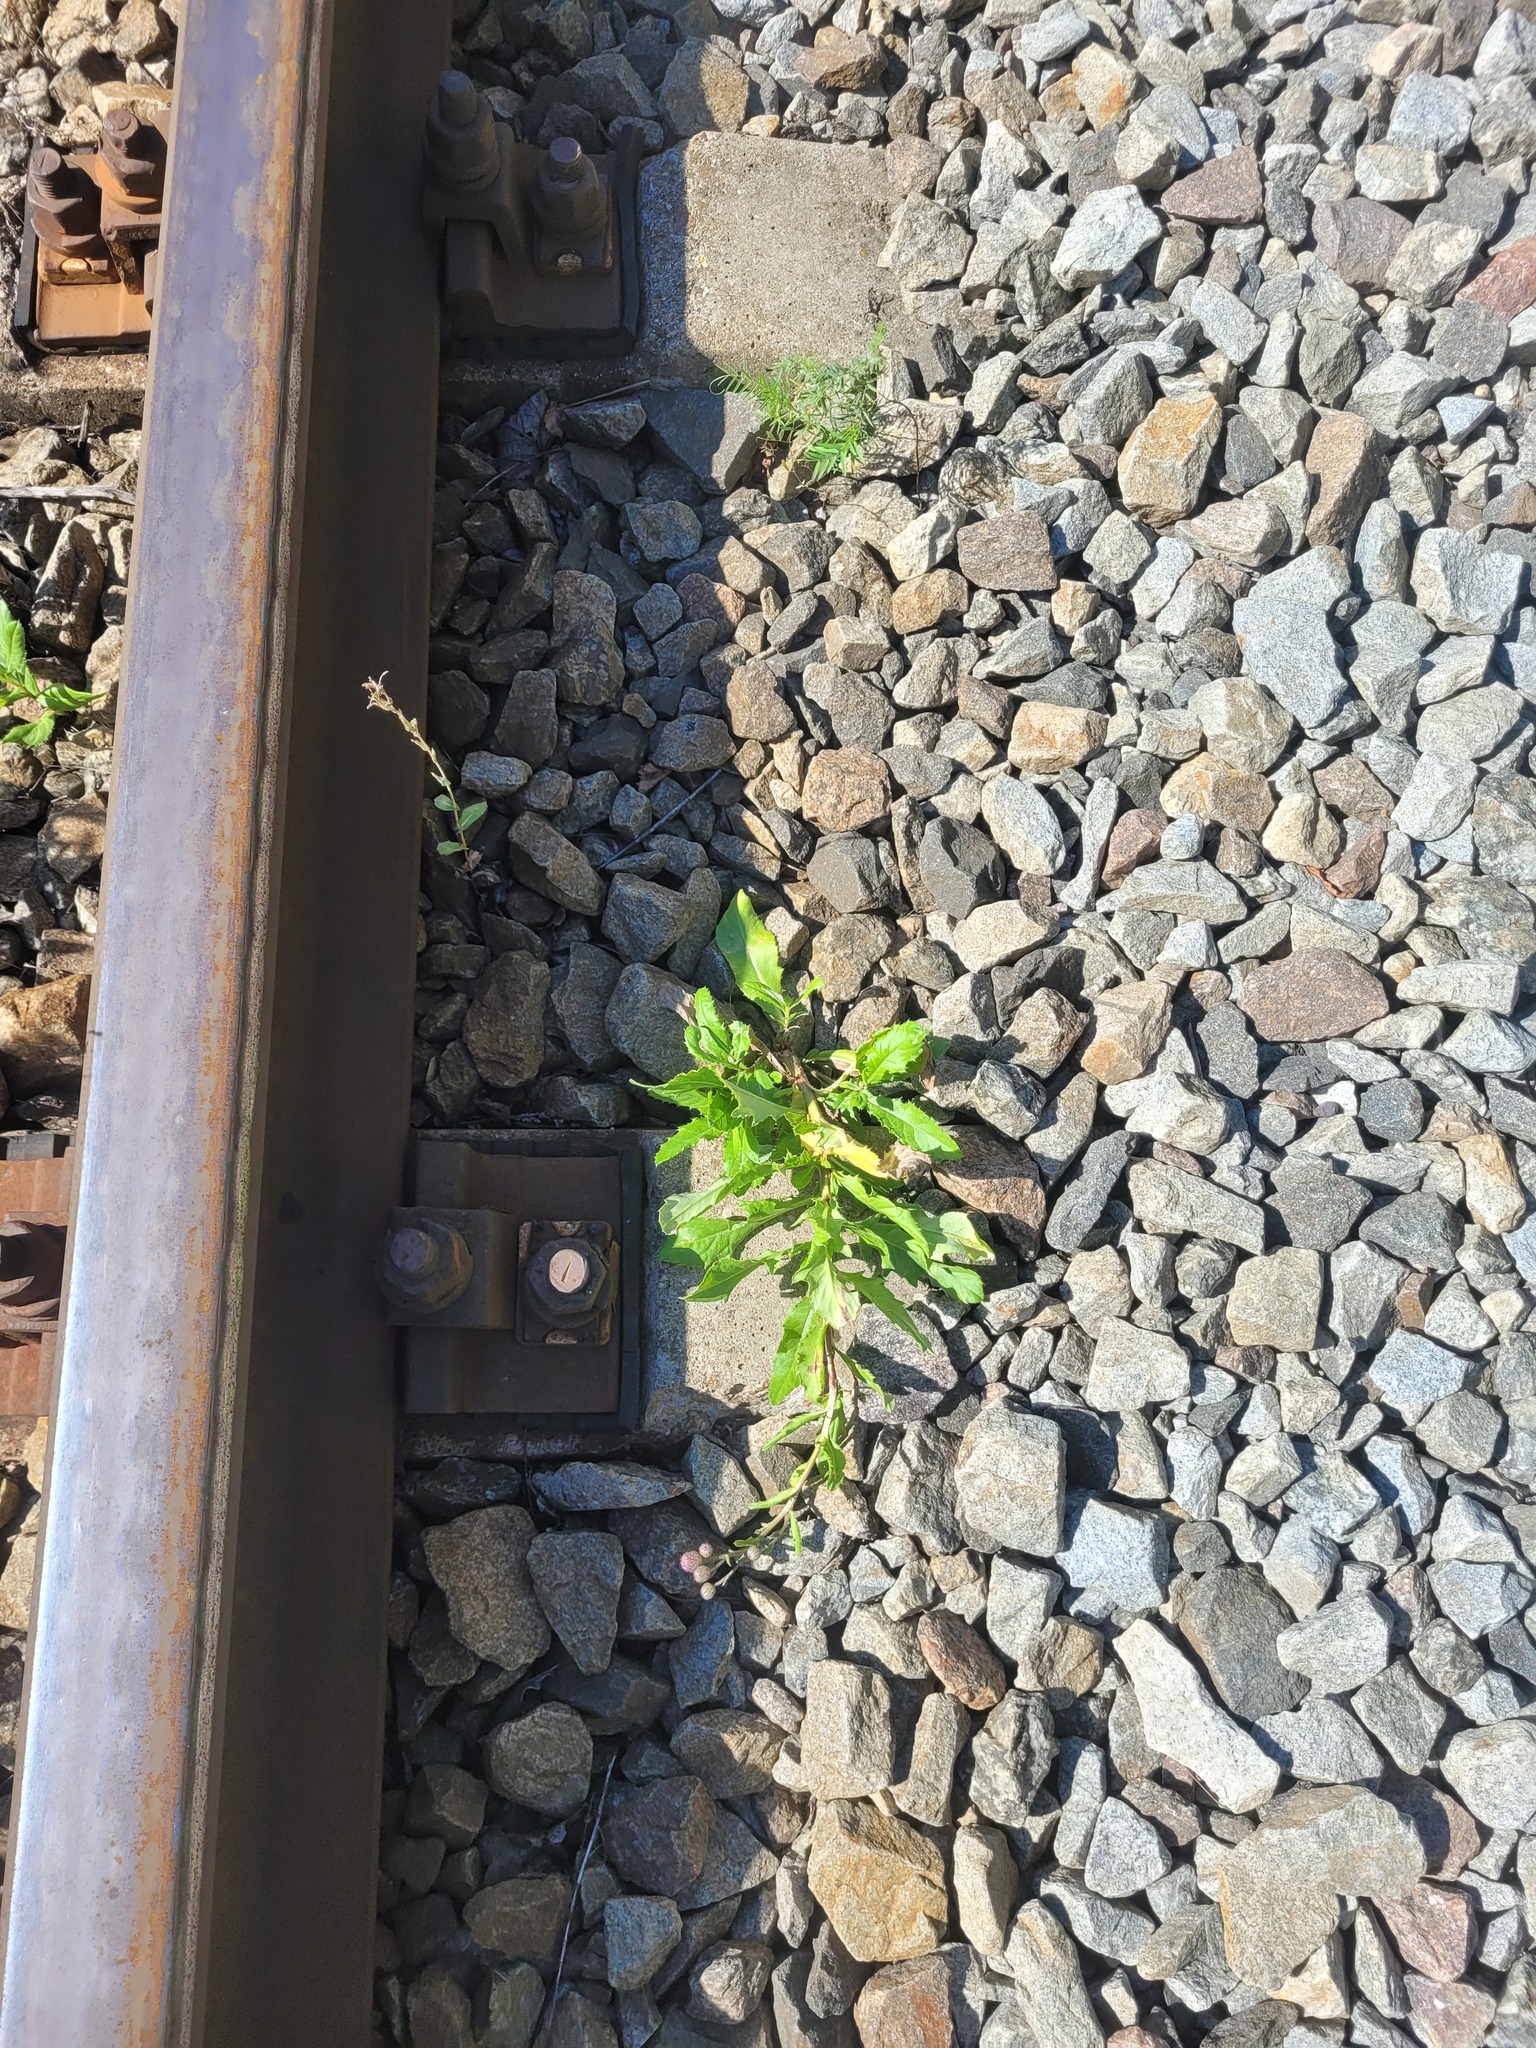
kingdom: Plantae
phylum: Tracheophyta
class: Magnoliopsida
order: Asterales
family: Asteraceae
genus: Cirsium
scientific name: Cirsium arvense
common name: Creeping thistle
